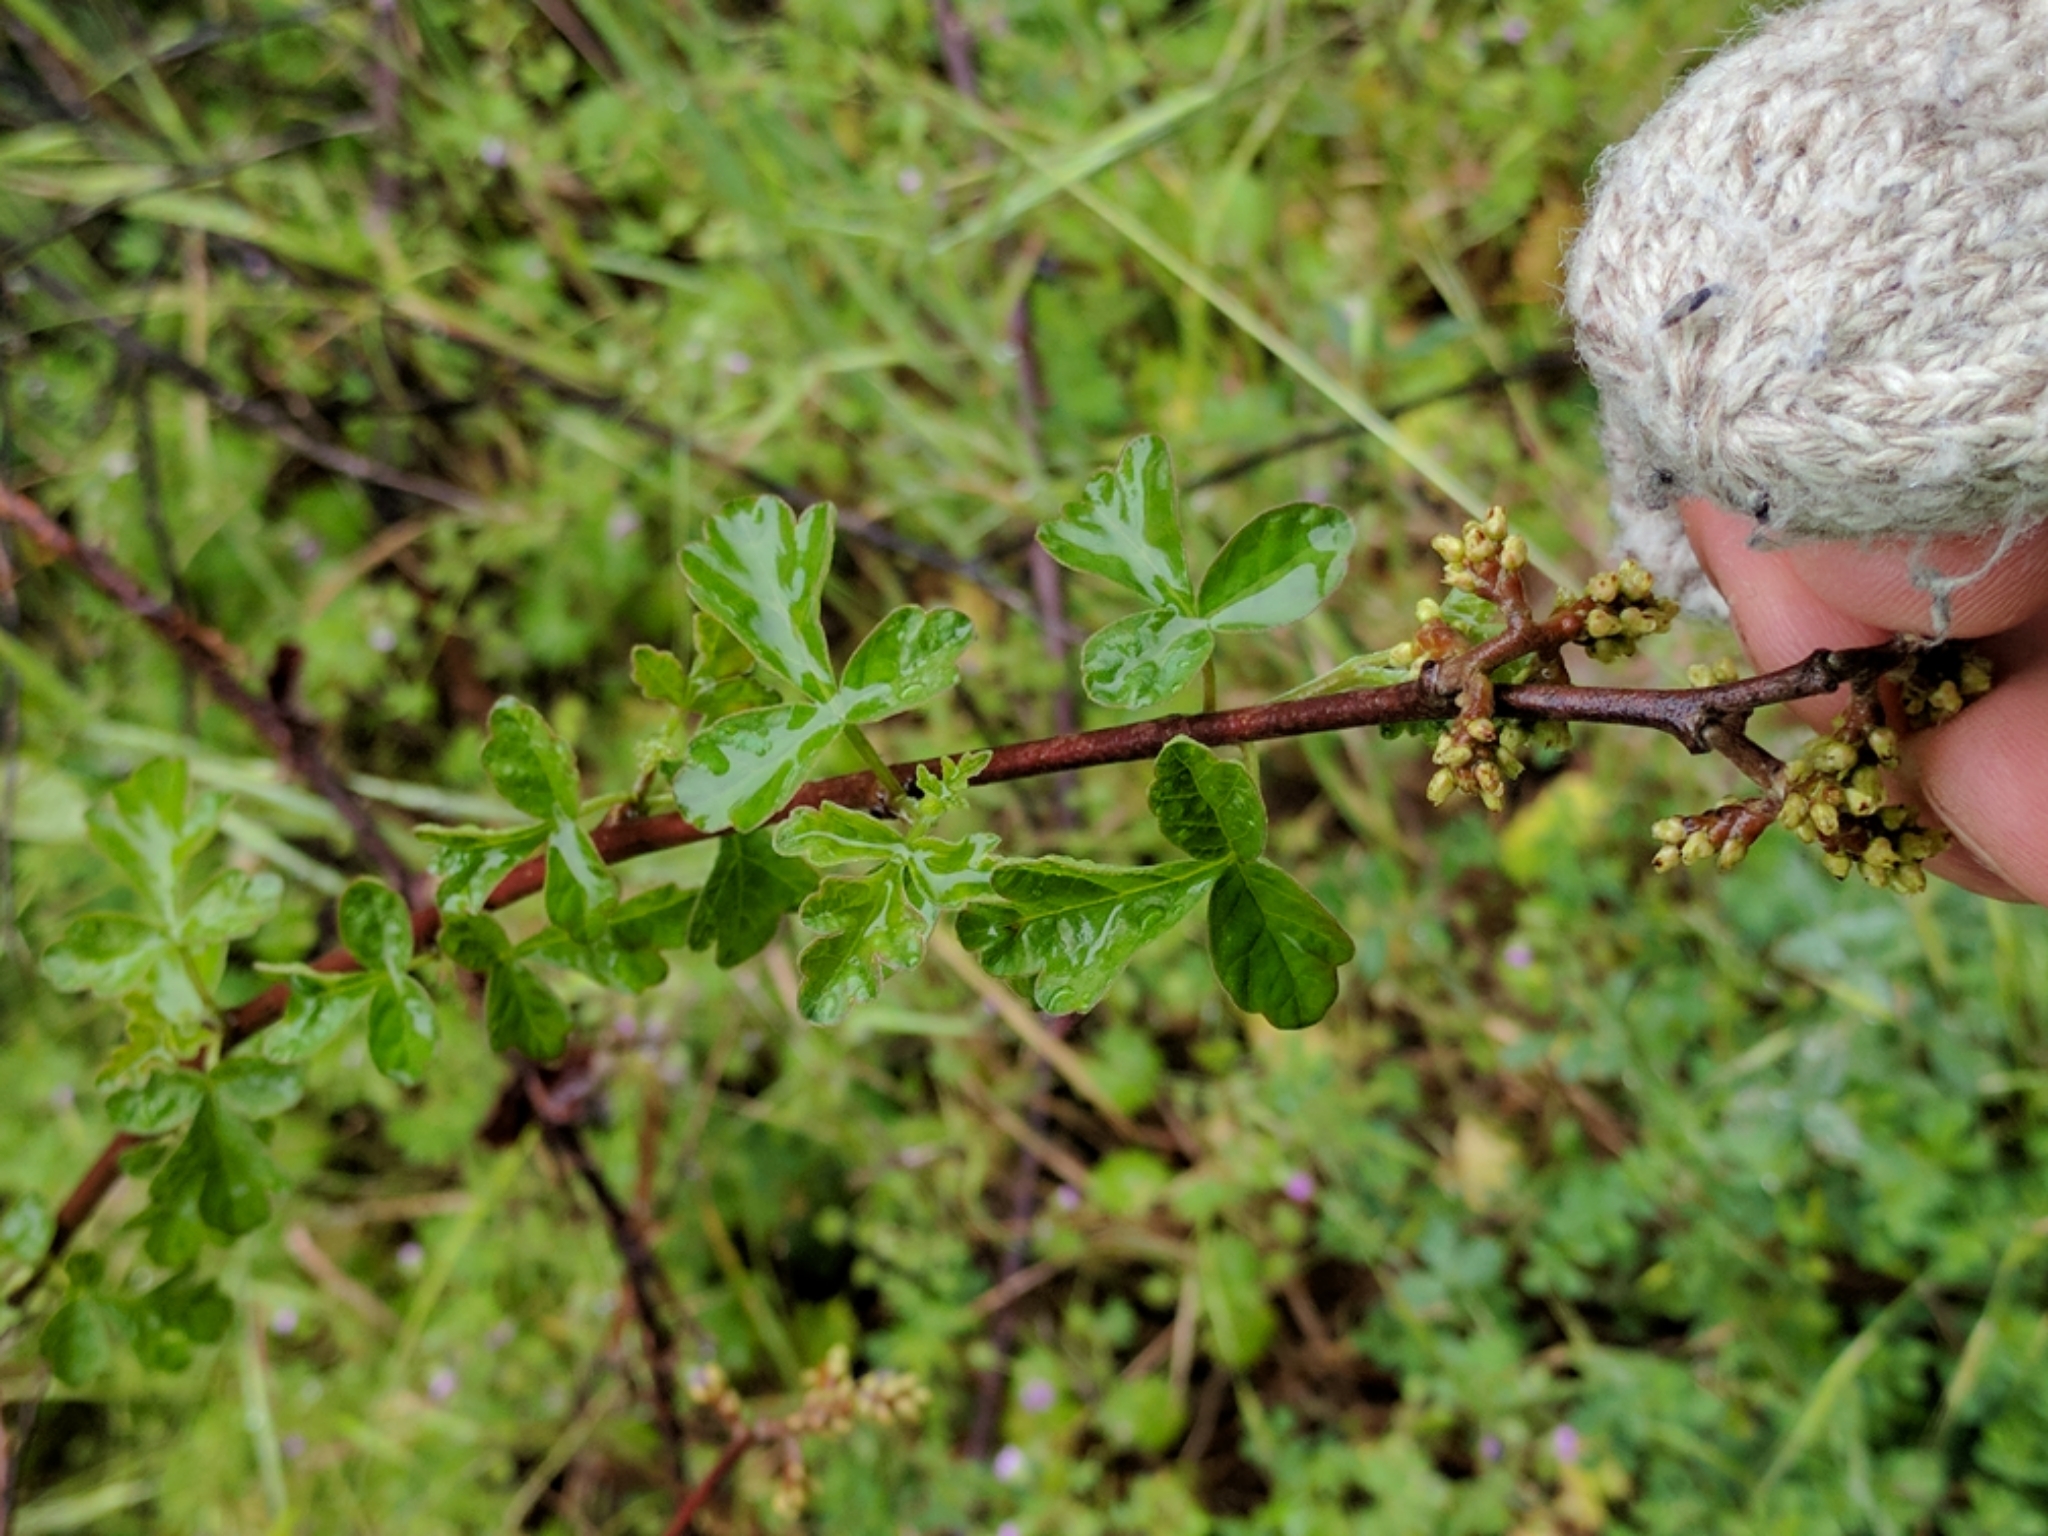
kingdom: Plantae
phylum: Tracheophyta
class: Magnoliopsida
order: Sapindales
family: Anacardiaceae
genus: Rhus
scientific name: Rhus aromatica
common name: Aromatic sumac
